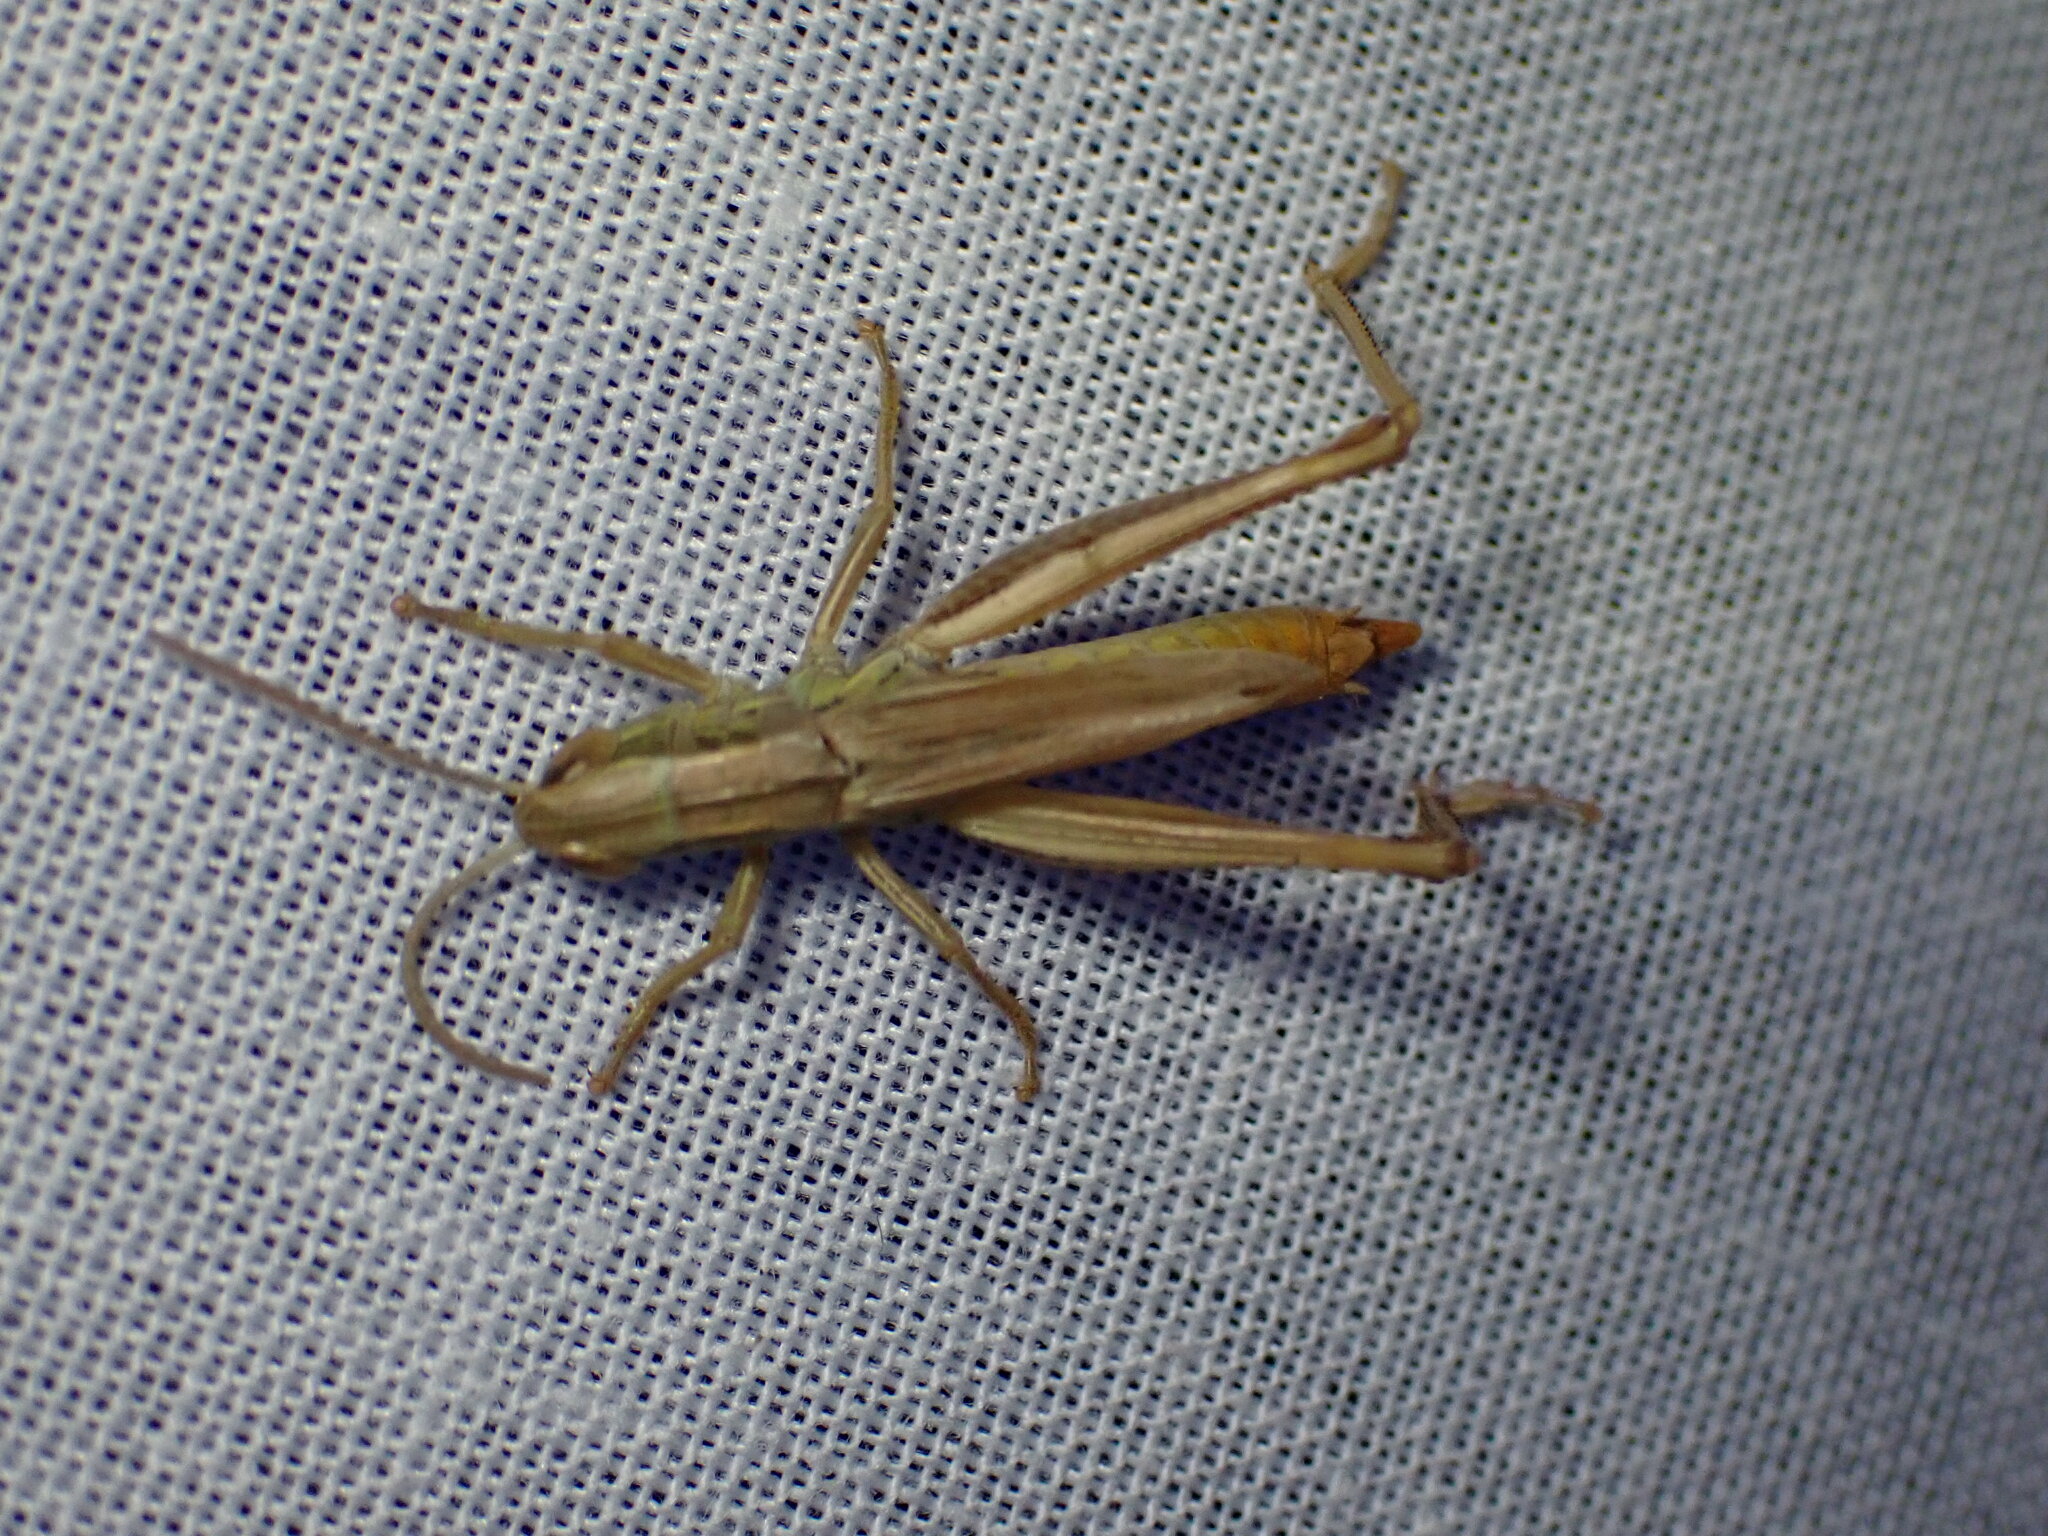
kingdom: Animalia
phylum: Arthropoda
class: Insecta
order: Orthoptera
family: Acrididae
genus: Euchorthippus
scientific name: Euchorthippus declivus
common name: Common straw grasshopper
